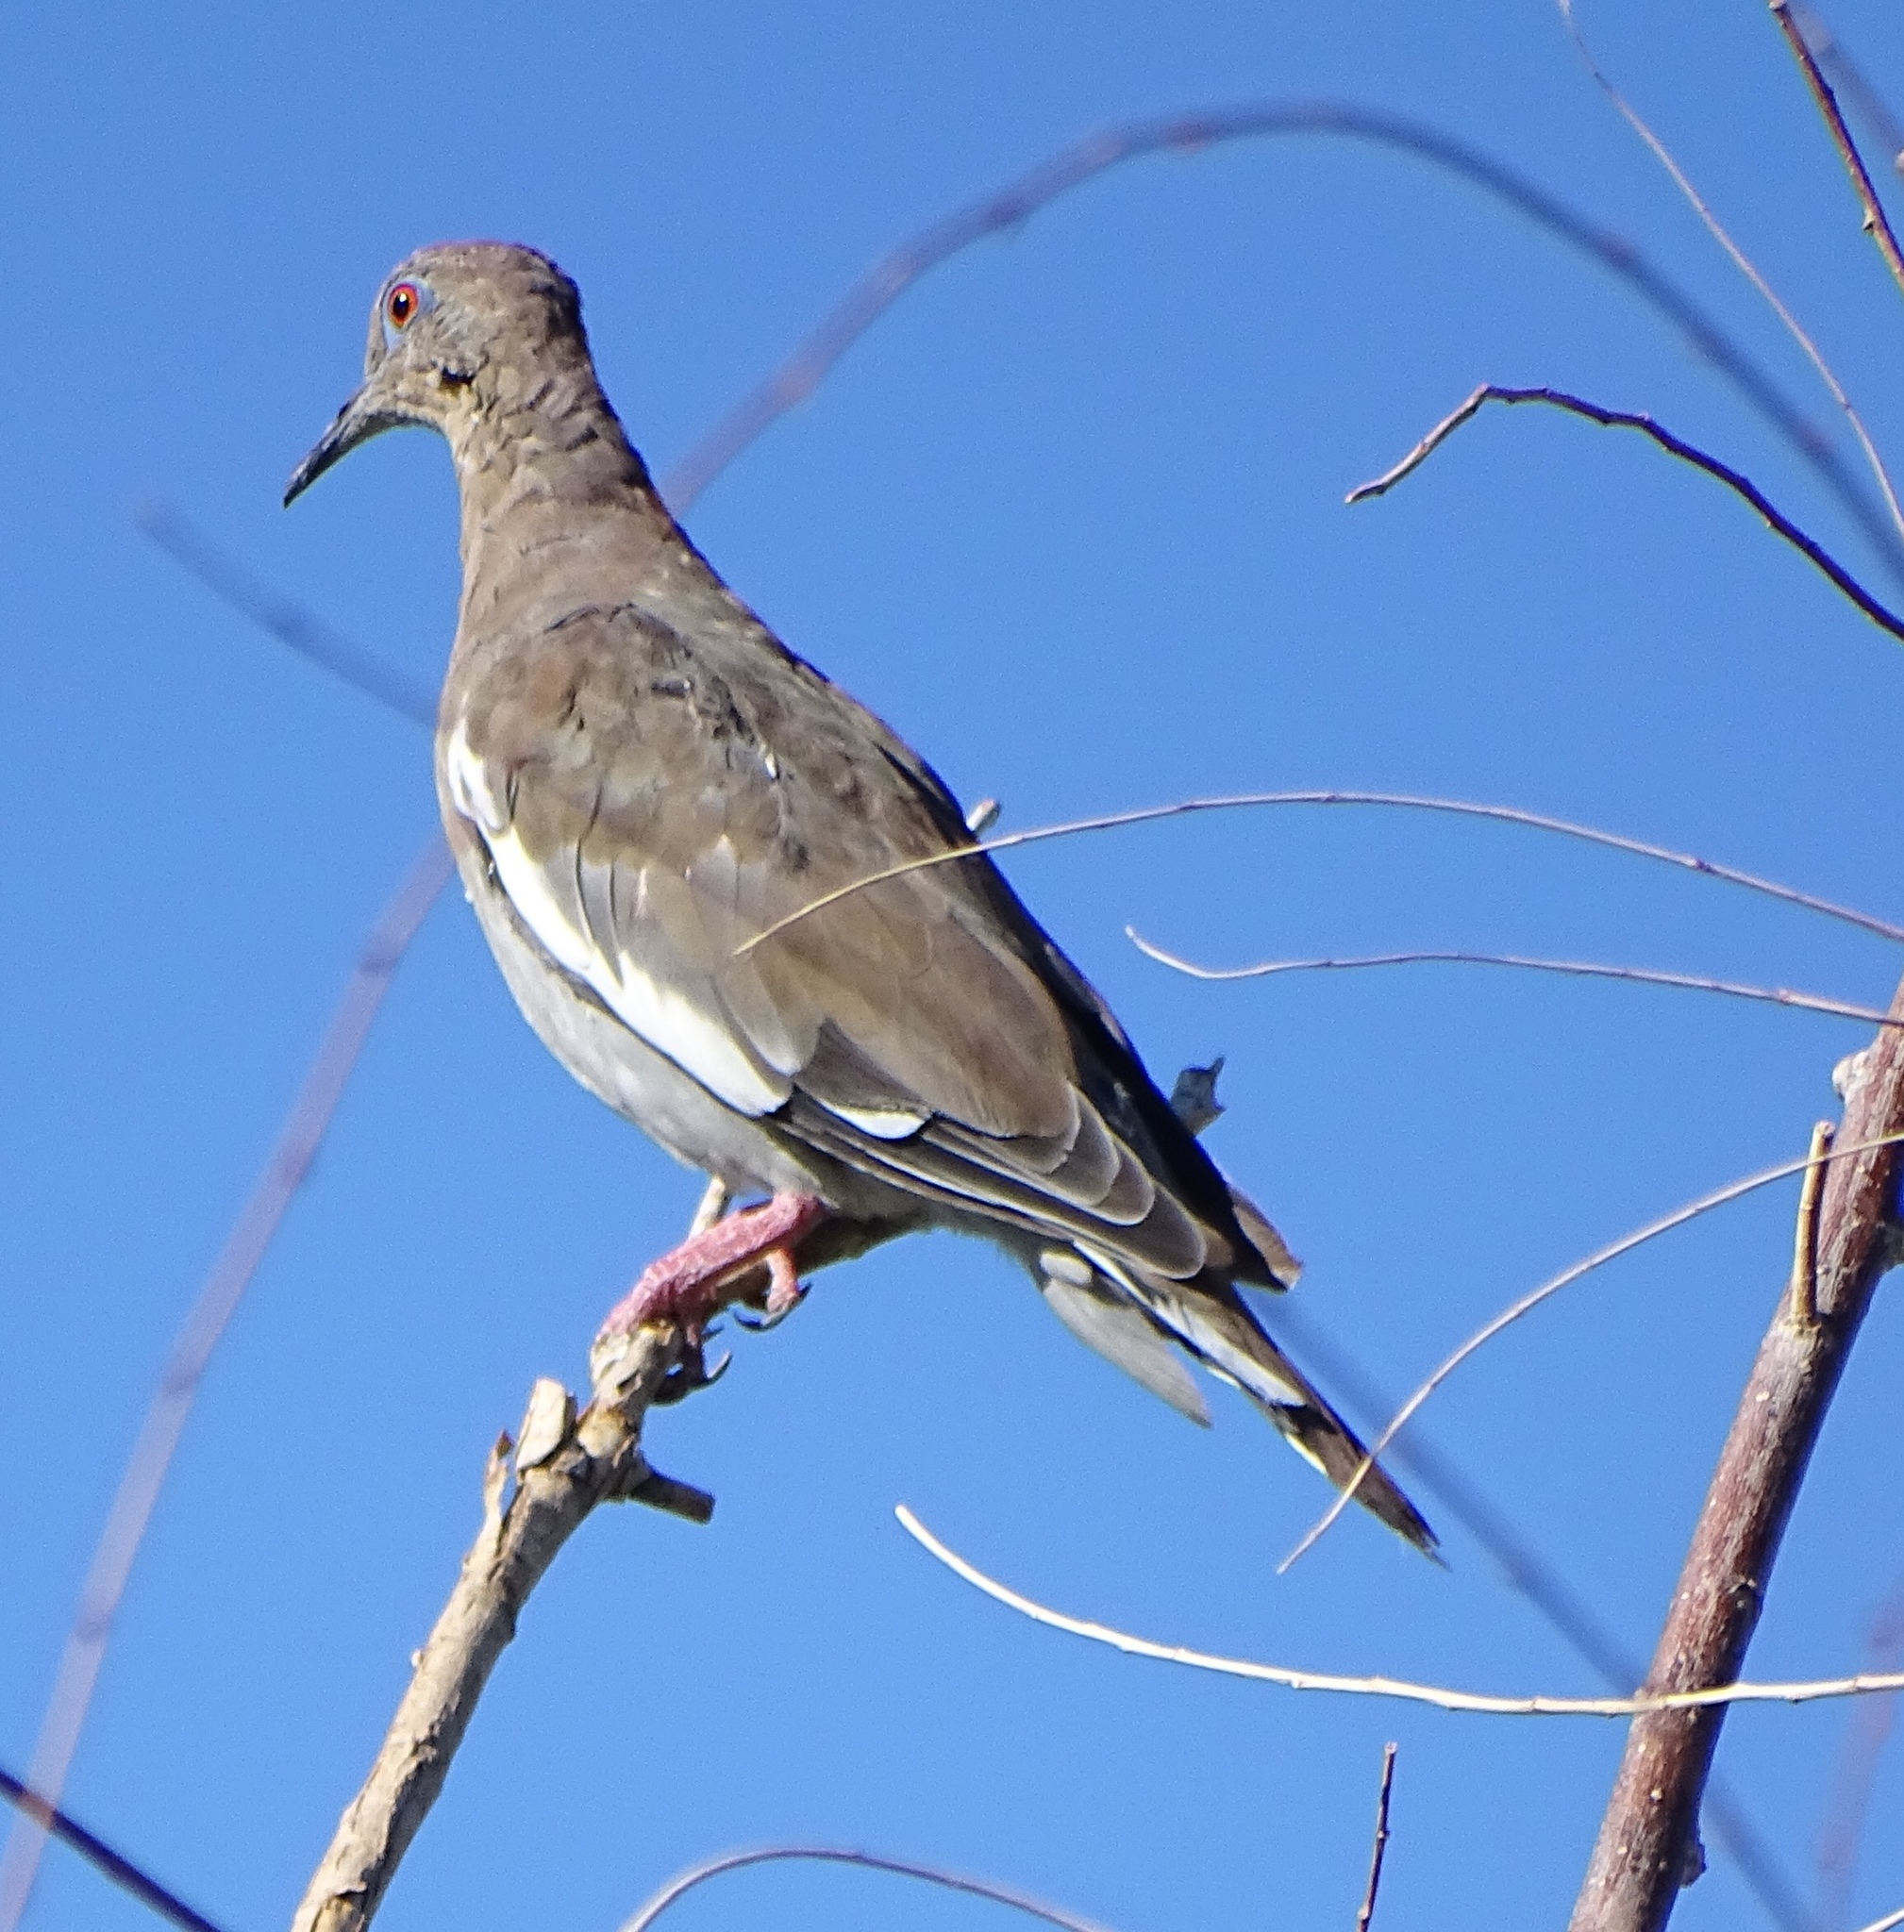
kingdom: Animalia
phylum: Chordata
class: Aves
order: Columbiformes
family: Columbidae
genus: Zenaida
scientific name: Zenaida asiatica
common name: White-winged dove
